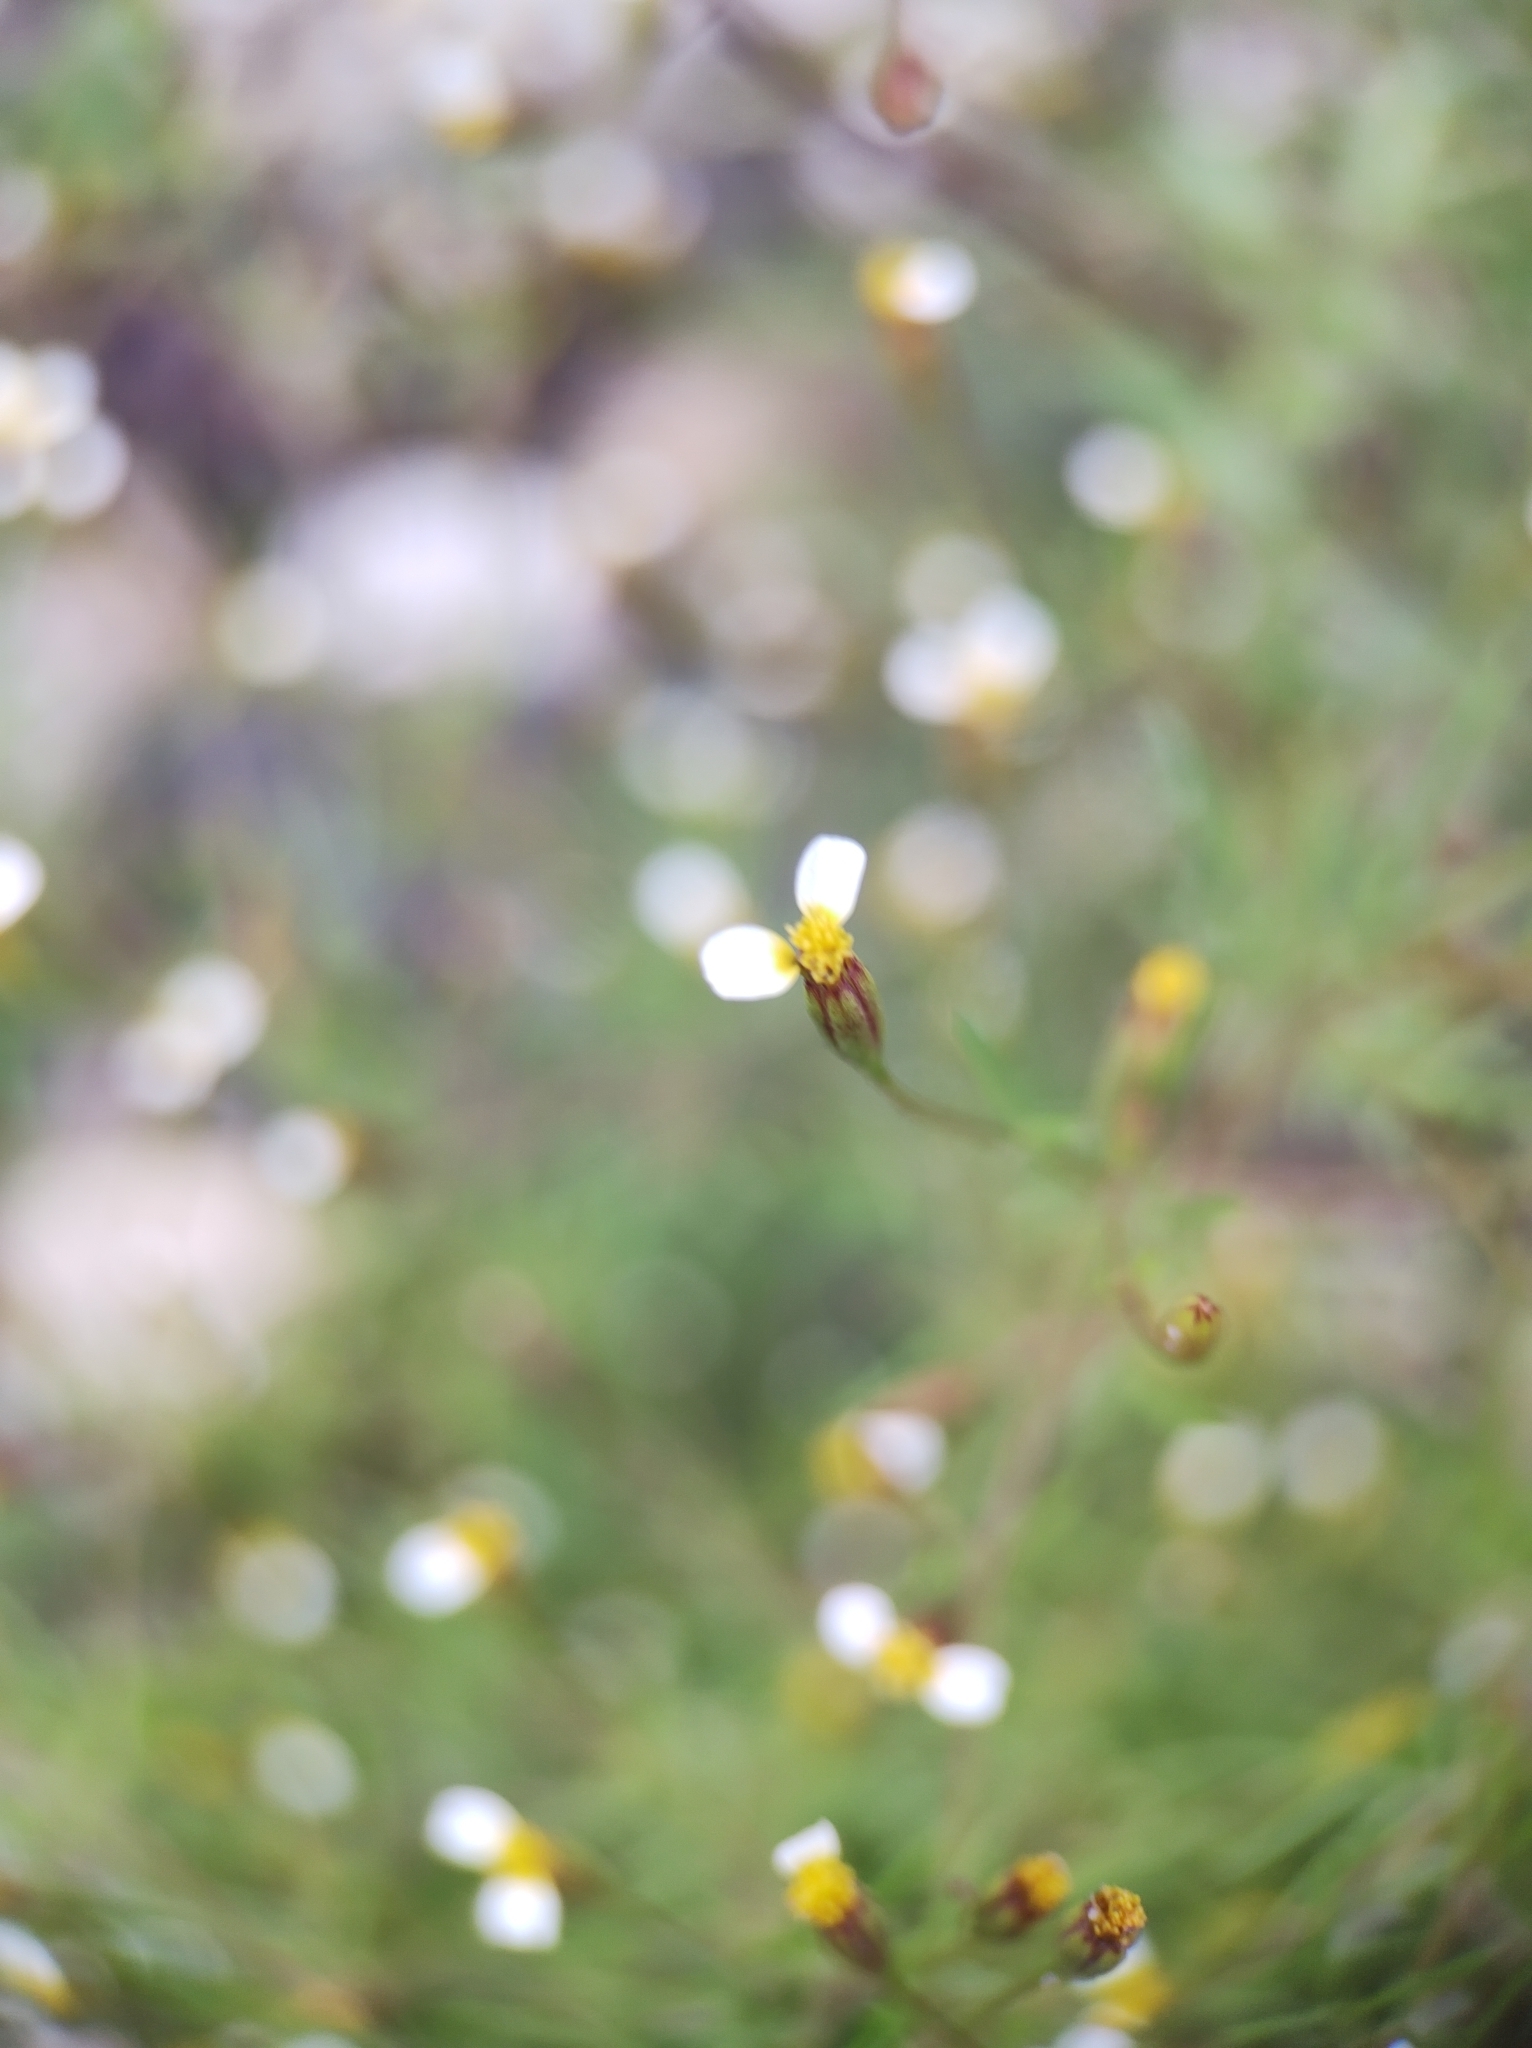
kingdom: Plantae
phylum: Tracheophyta
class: Magnoliopsida
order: Asterales
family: Asteraceae
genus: Tagetes
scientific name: Tagetes micrantha
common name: Licorice marigold
